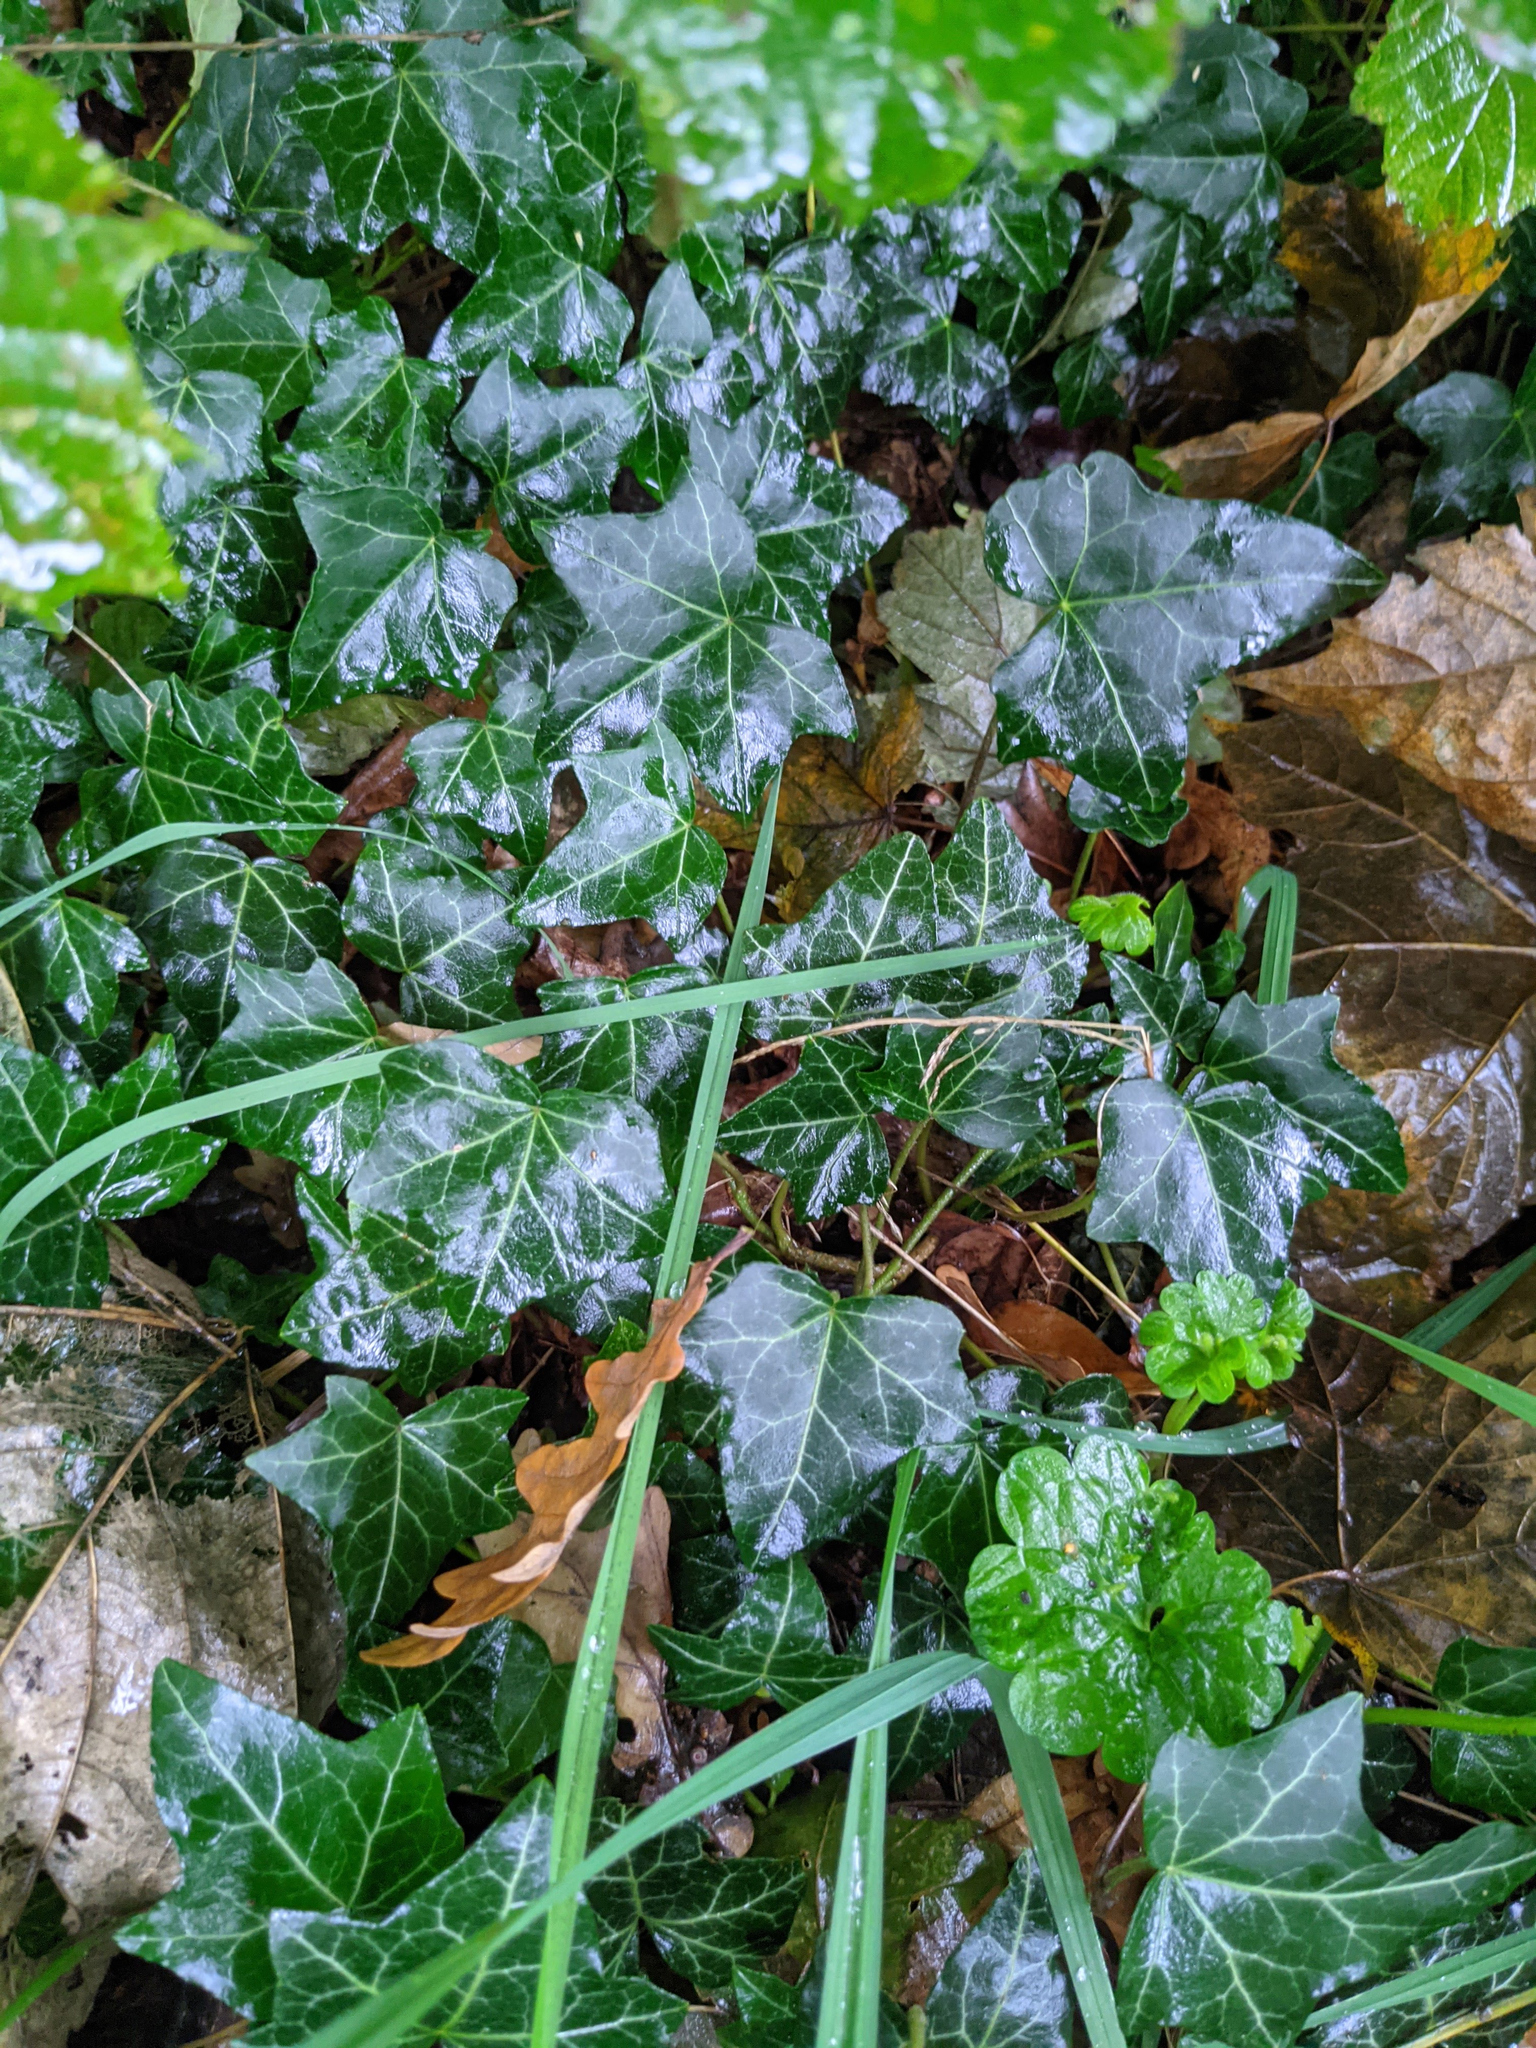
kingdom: Plantae
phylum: Tracheophyta
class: Magnoliopsida
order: Apiales
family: Araliaceae
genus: Hedera
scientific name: Hedera helix
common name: Ivy
